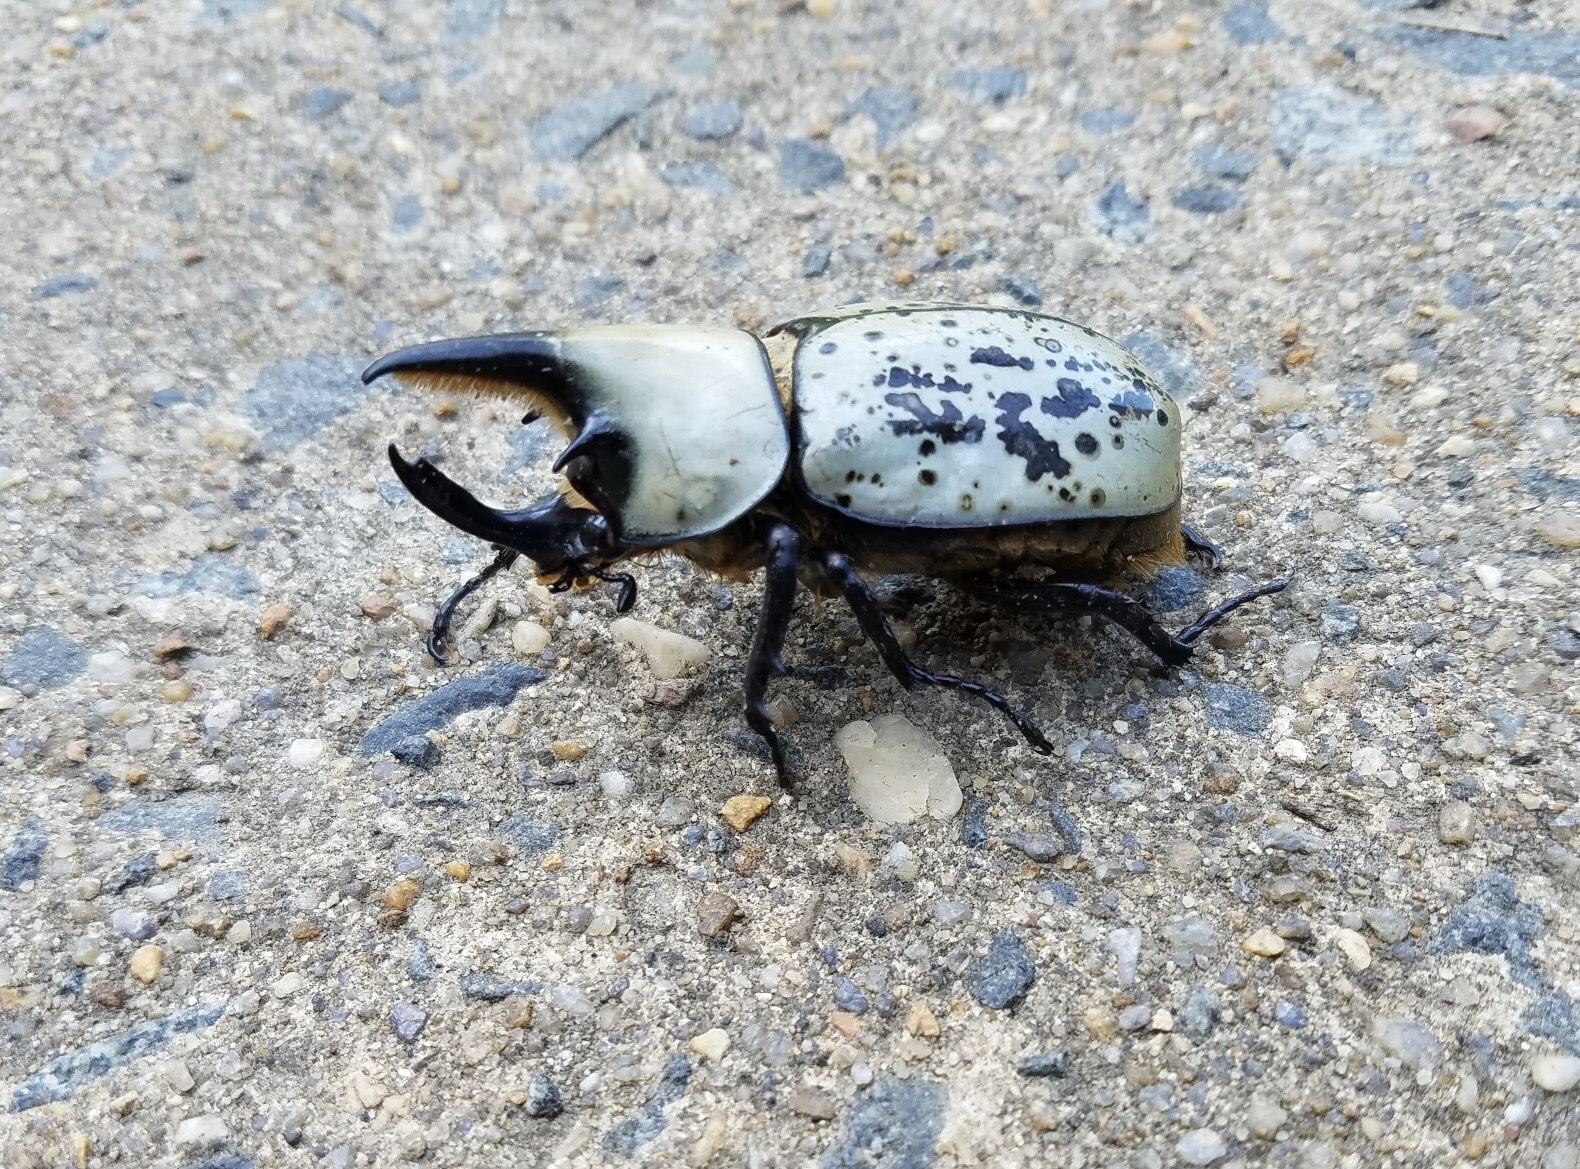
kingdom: Animalia
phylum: Arthropoda
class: Insecta
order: Coleoptera
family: Scarabaeidae
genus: Dynastes
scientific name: Dynastes tityus
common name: Eastern hercules beetle
